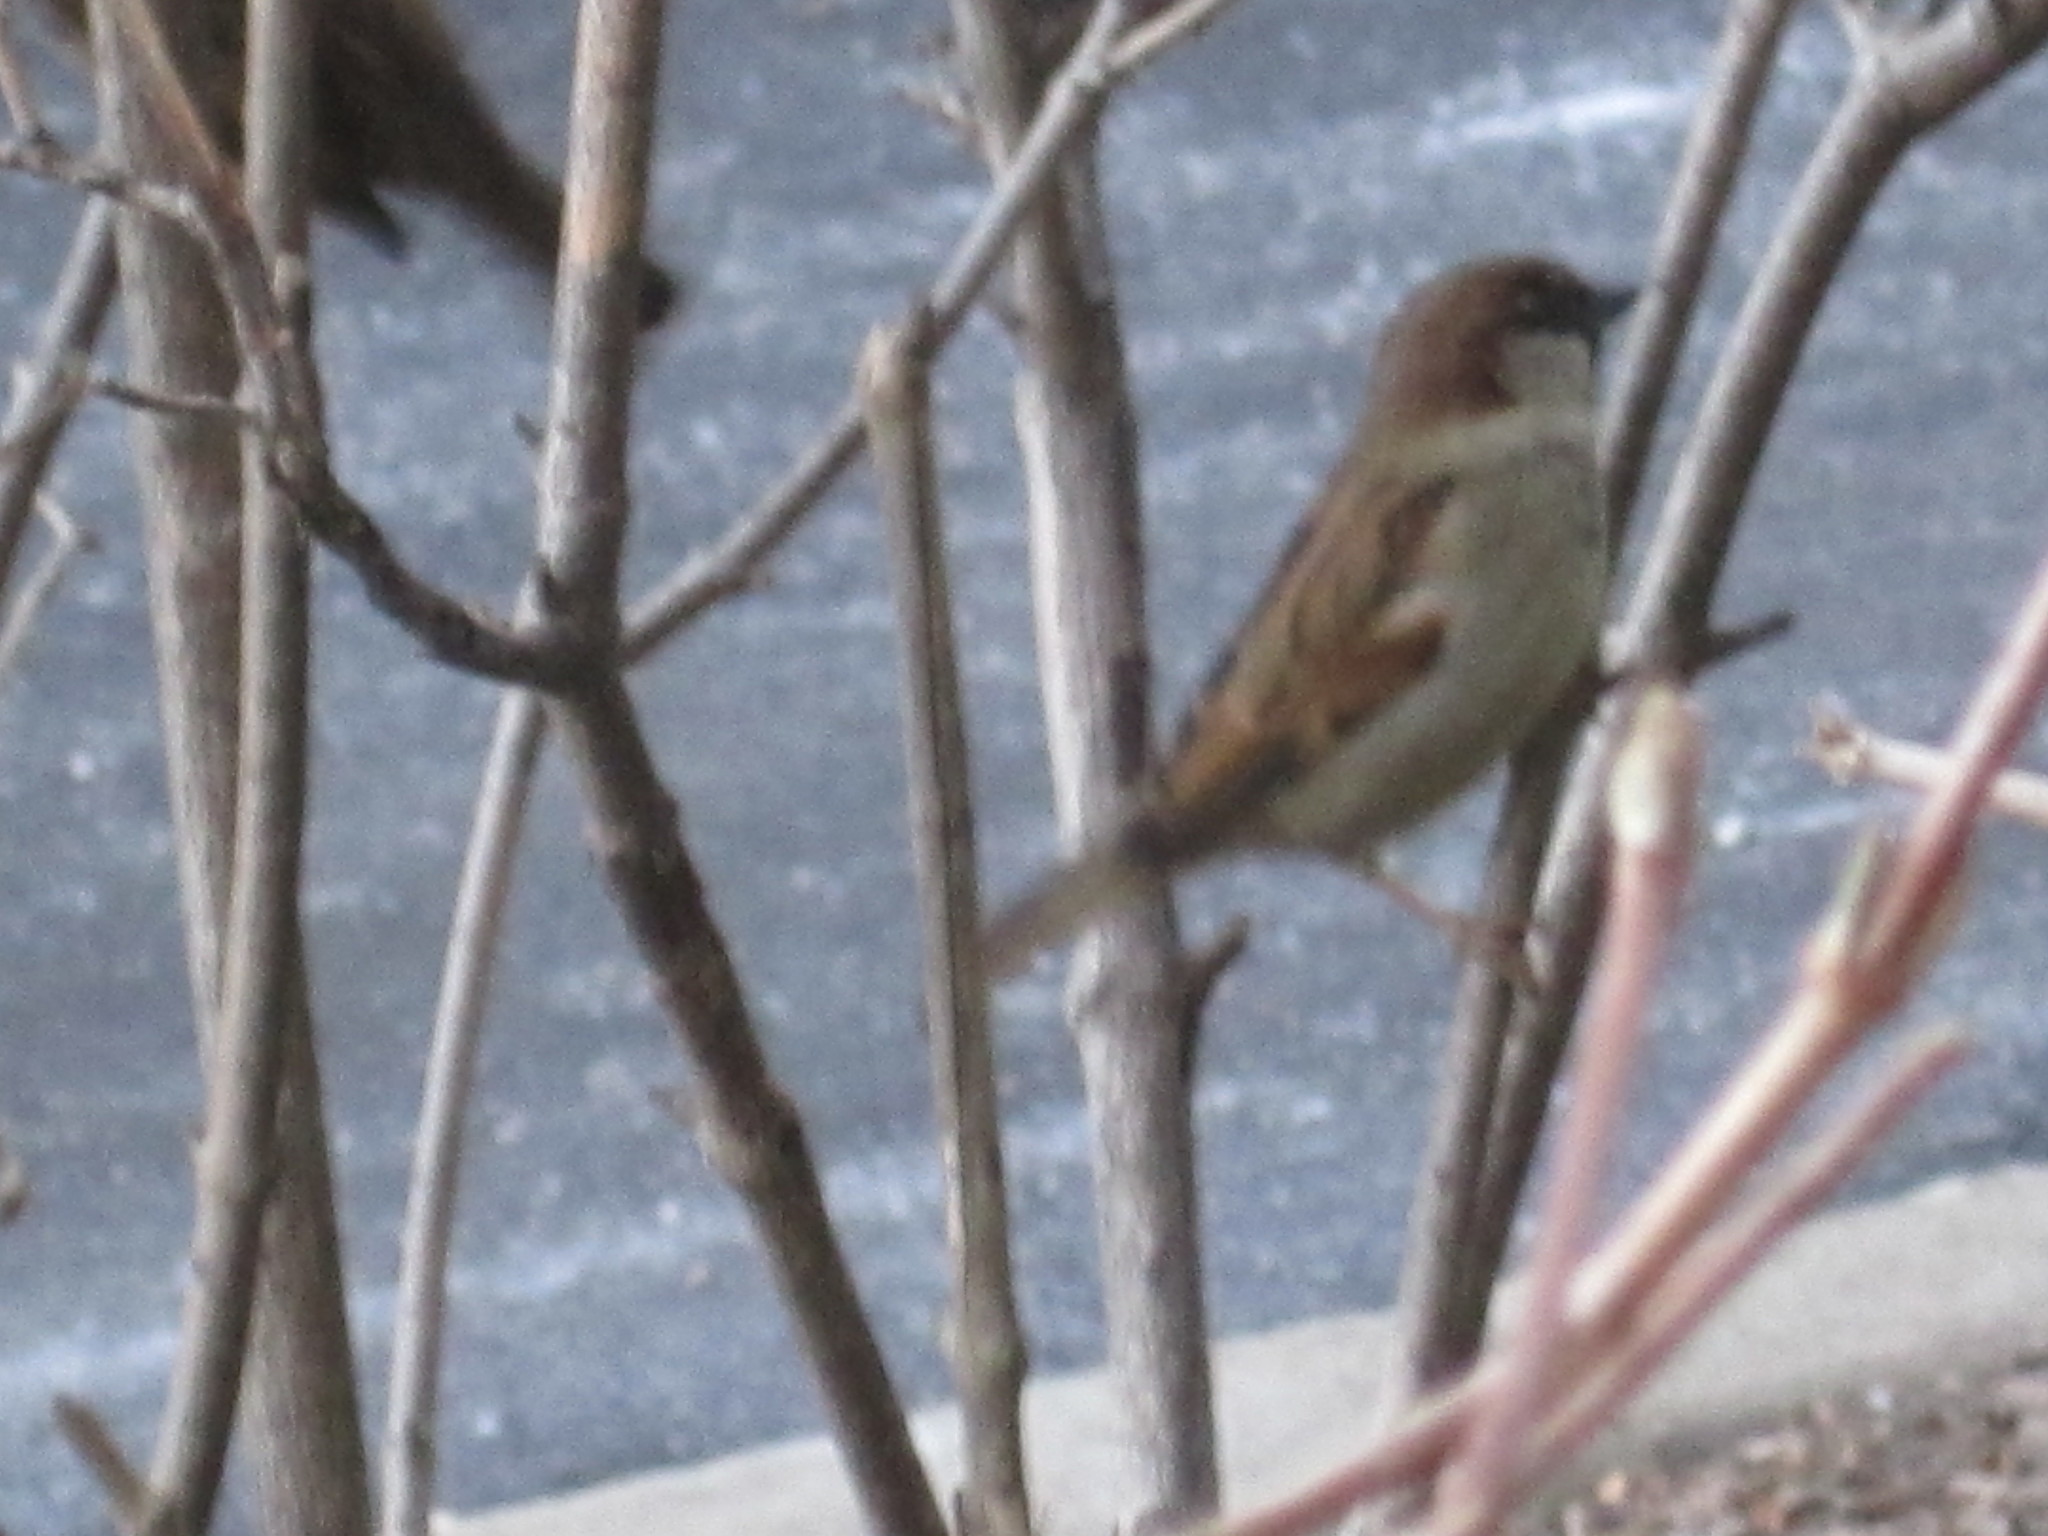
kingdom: Animalia
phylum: Chordata
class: Aves
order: Passeriformes
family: Passeridae
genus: Passer
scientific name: Passer domesticus
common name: House sparrow
